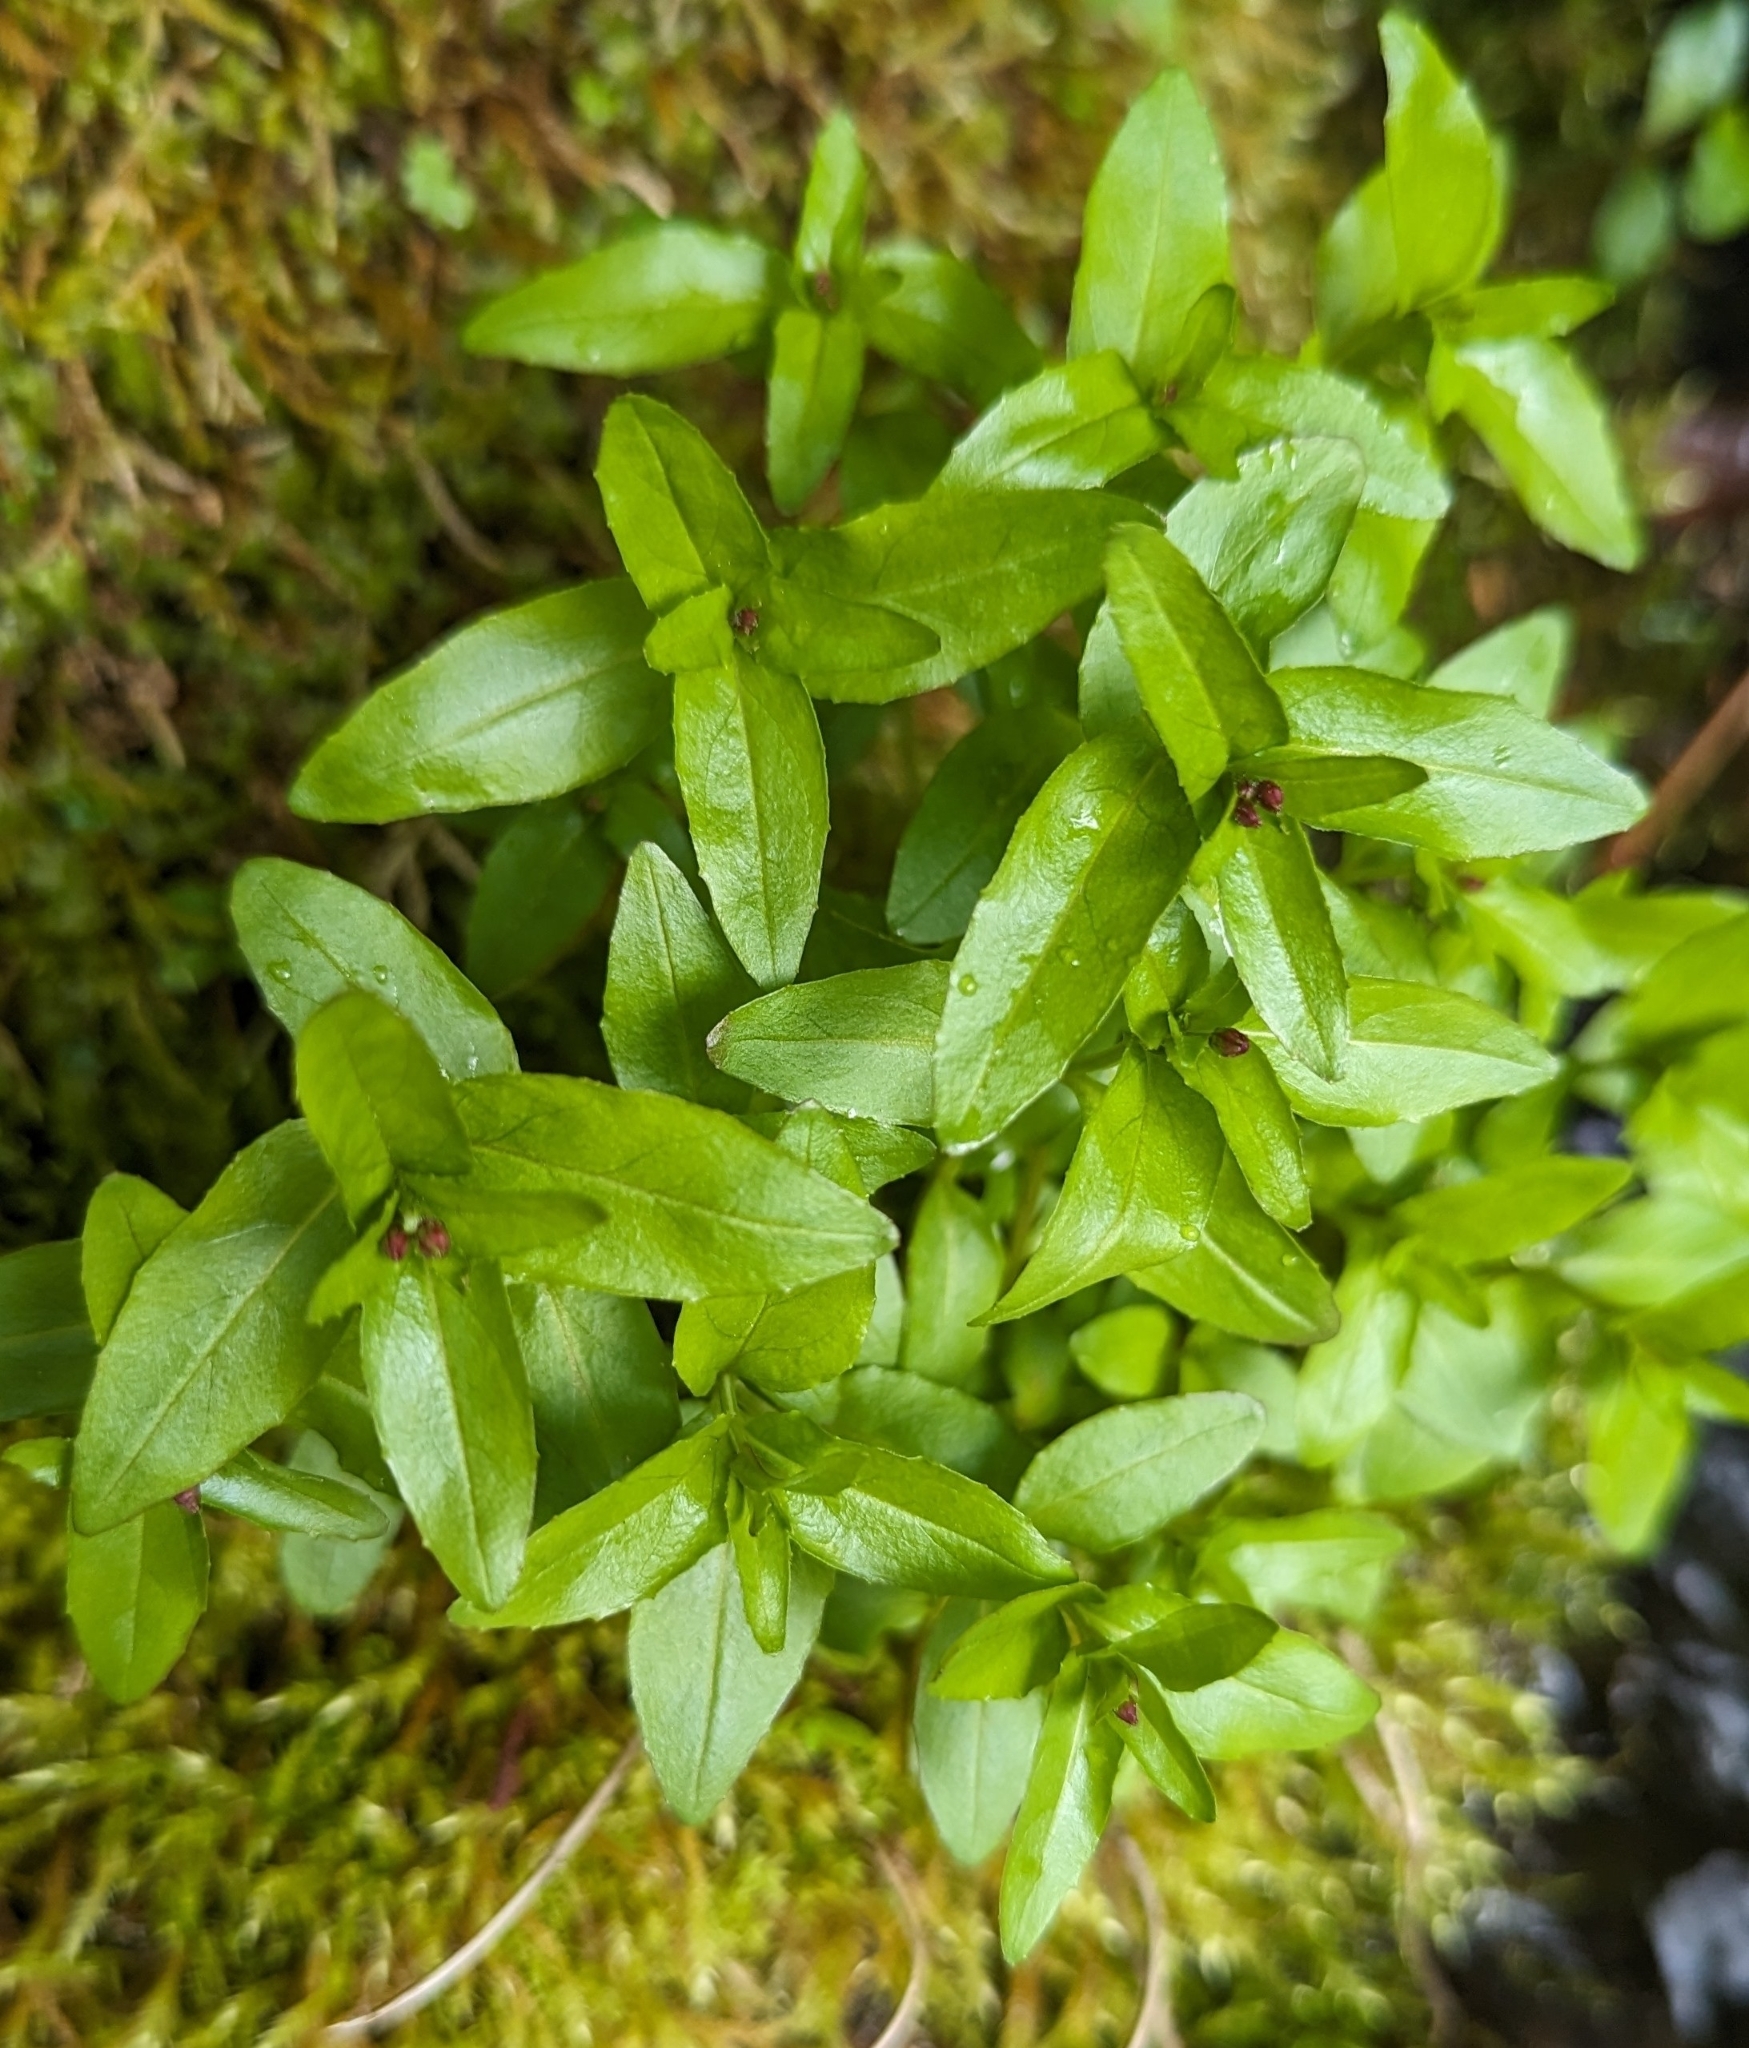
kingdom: Plantae
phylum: Tracheophyta
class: Magnoliopsida
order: Lamiales
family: Plantaginaceae
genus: Veronica
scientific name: Veronica americana
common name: American brooklime
